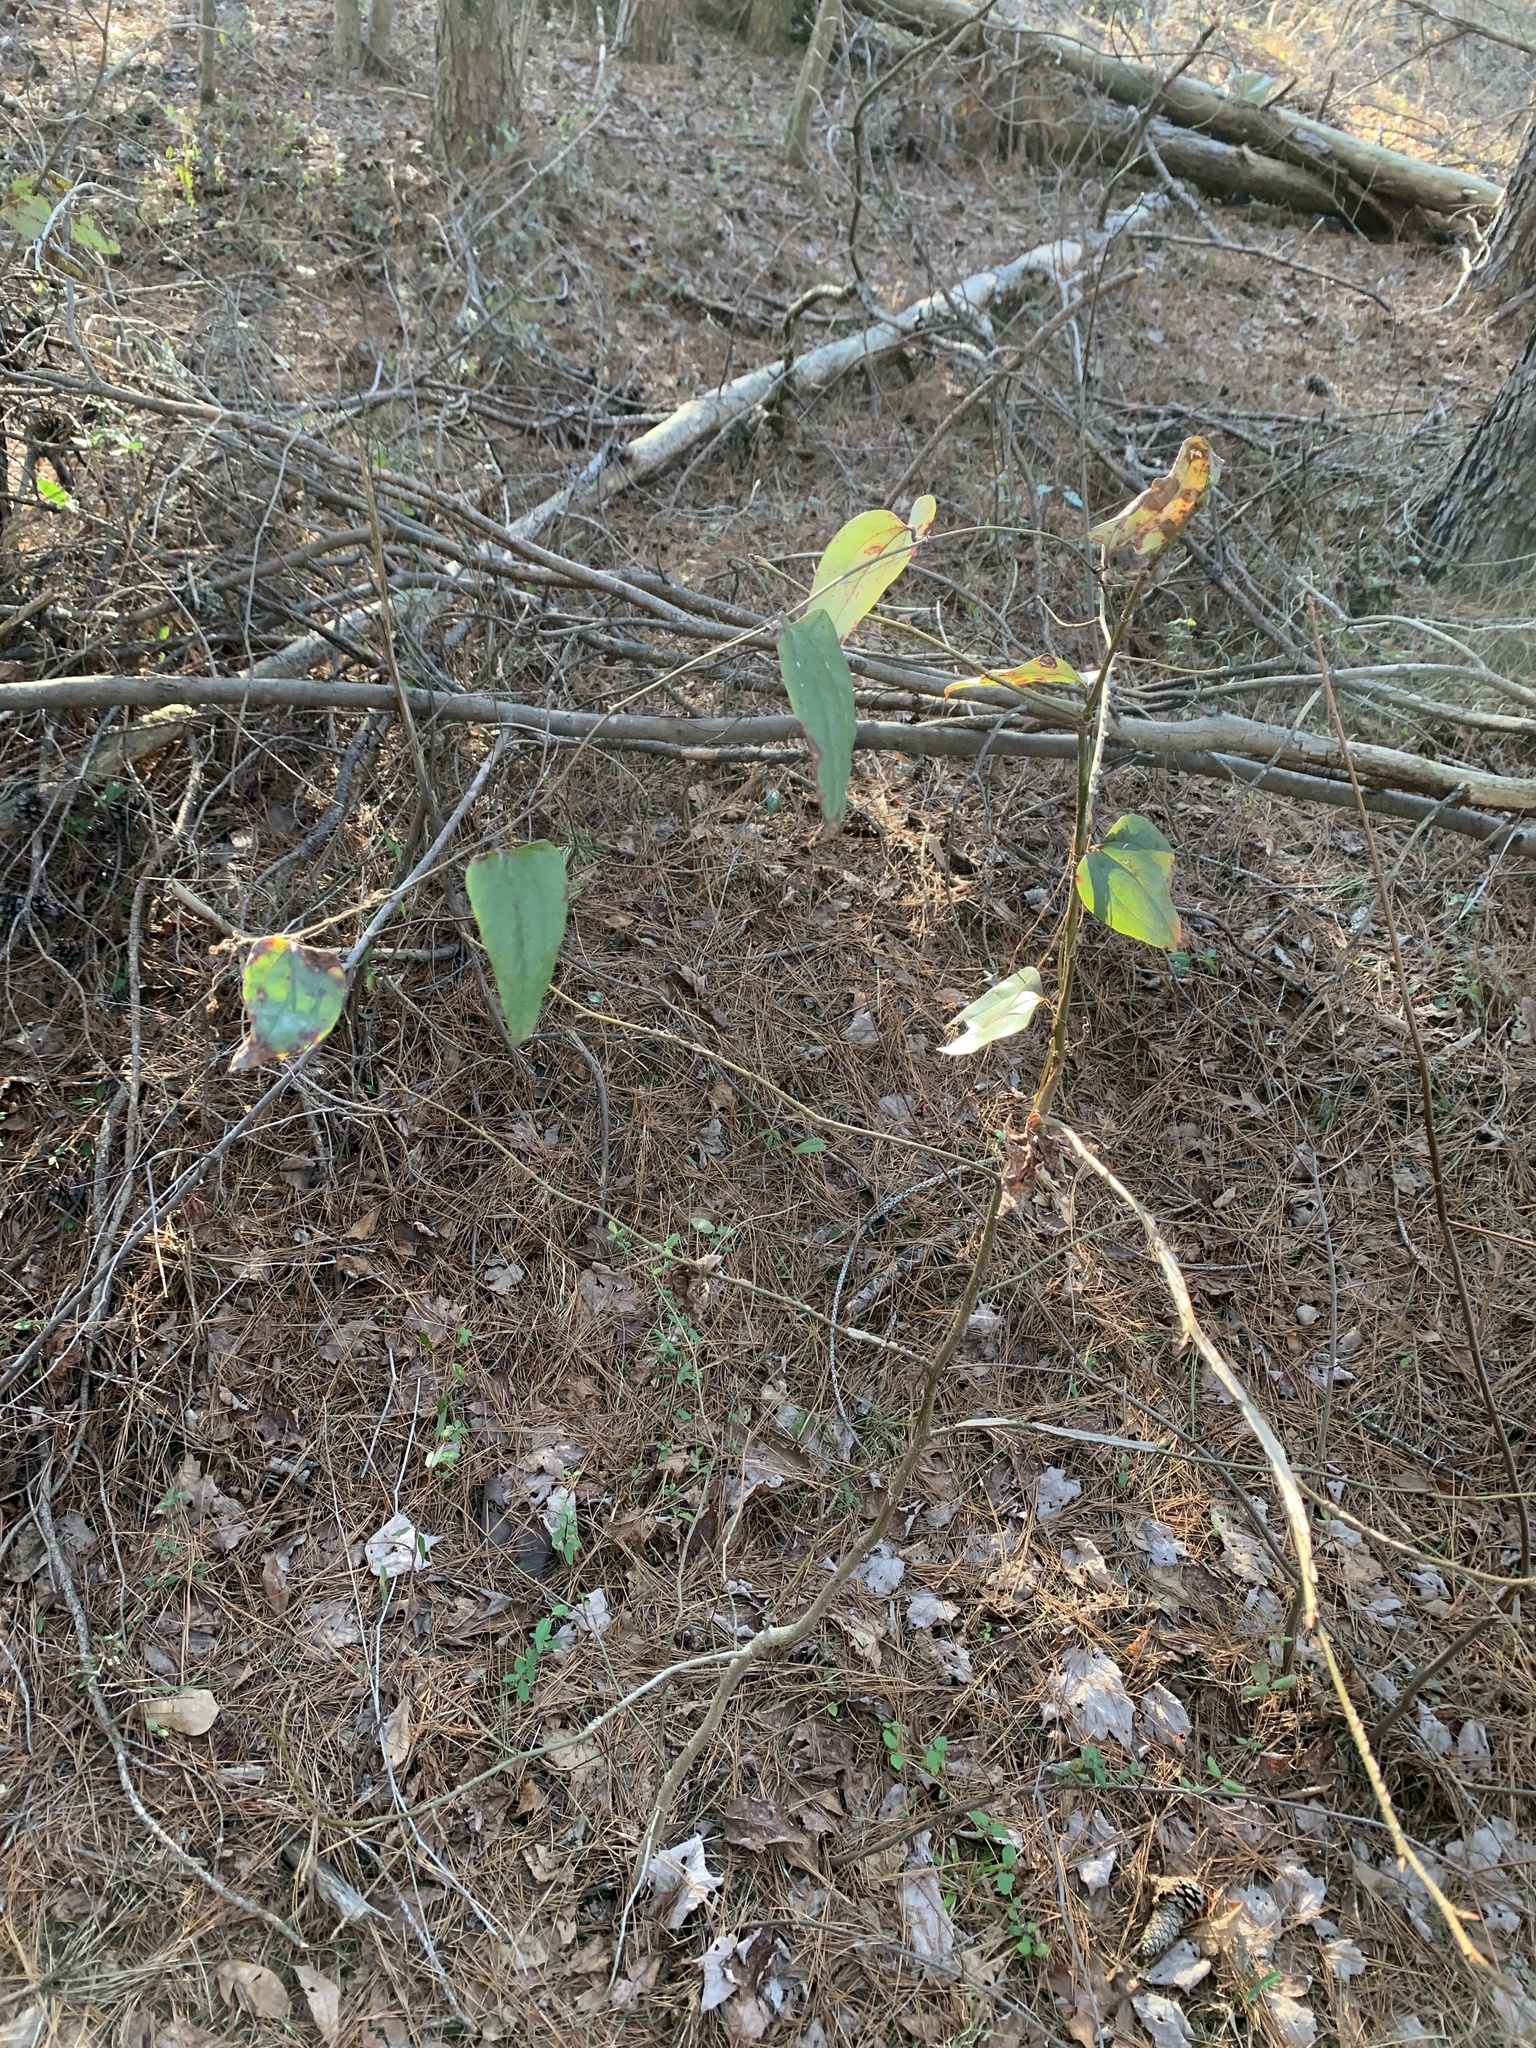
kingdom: Plantae
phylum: Tracheophyta
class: Liliopsida
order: Liliales
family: Smilacaceae
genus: Smilax
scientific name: Smilax glauca
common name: Cat greenbrier
